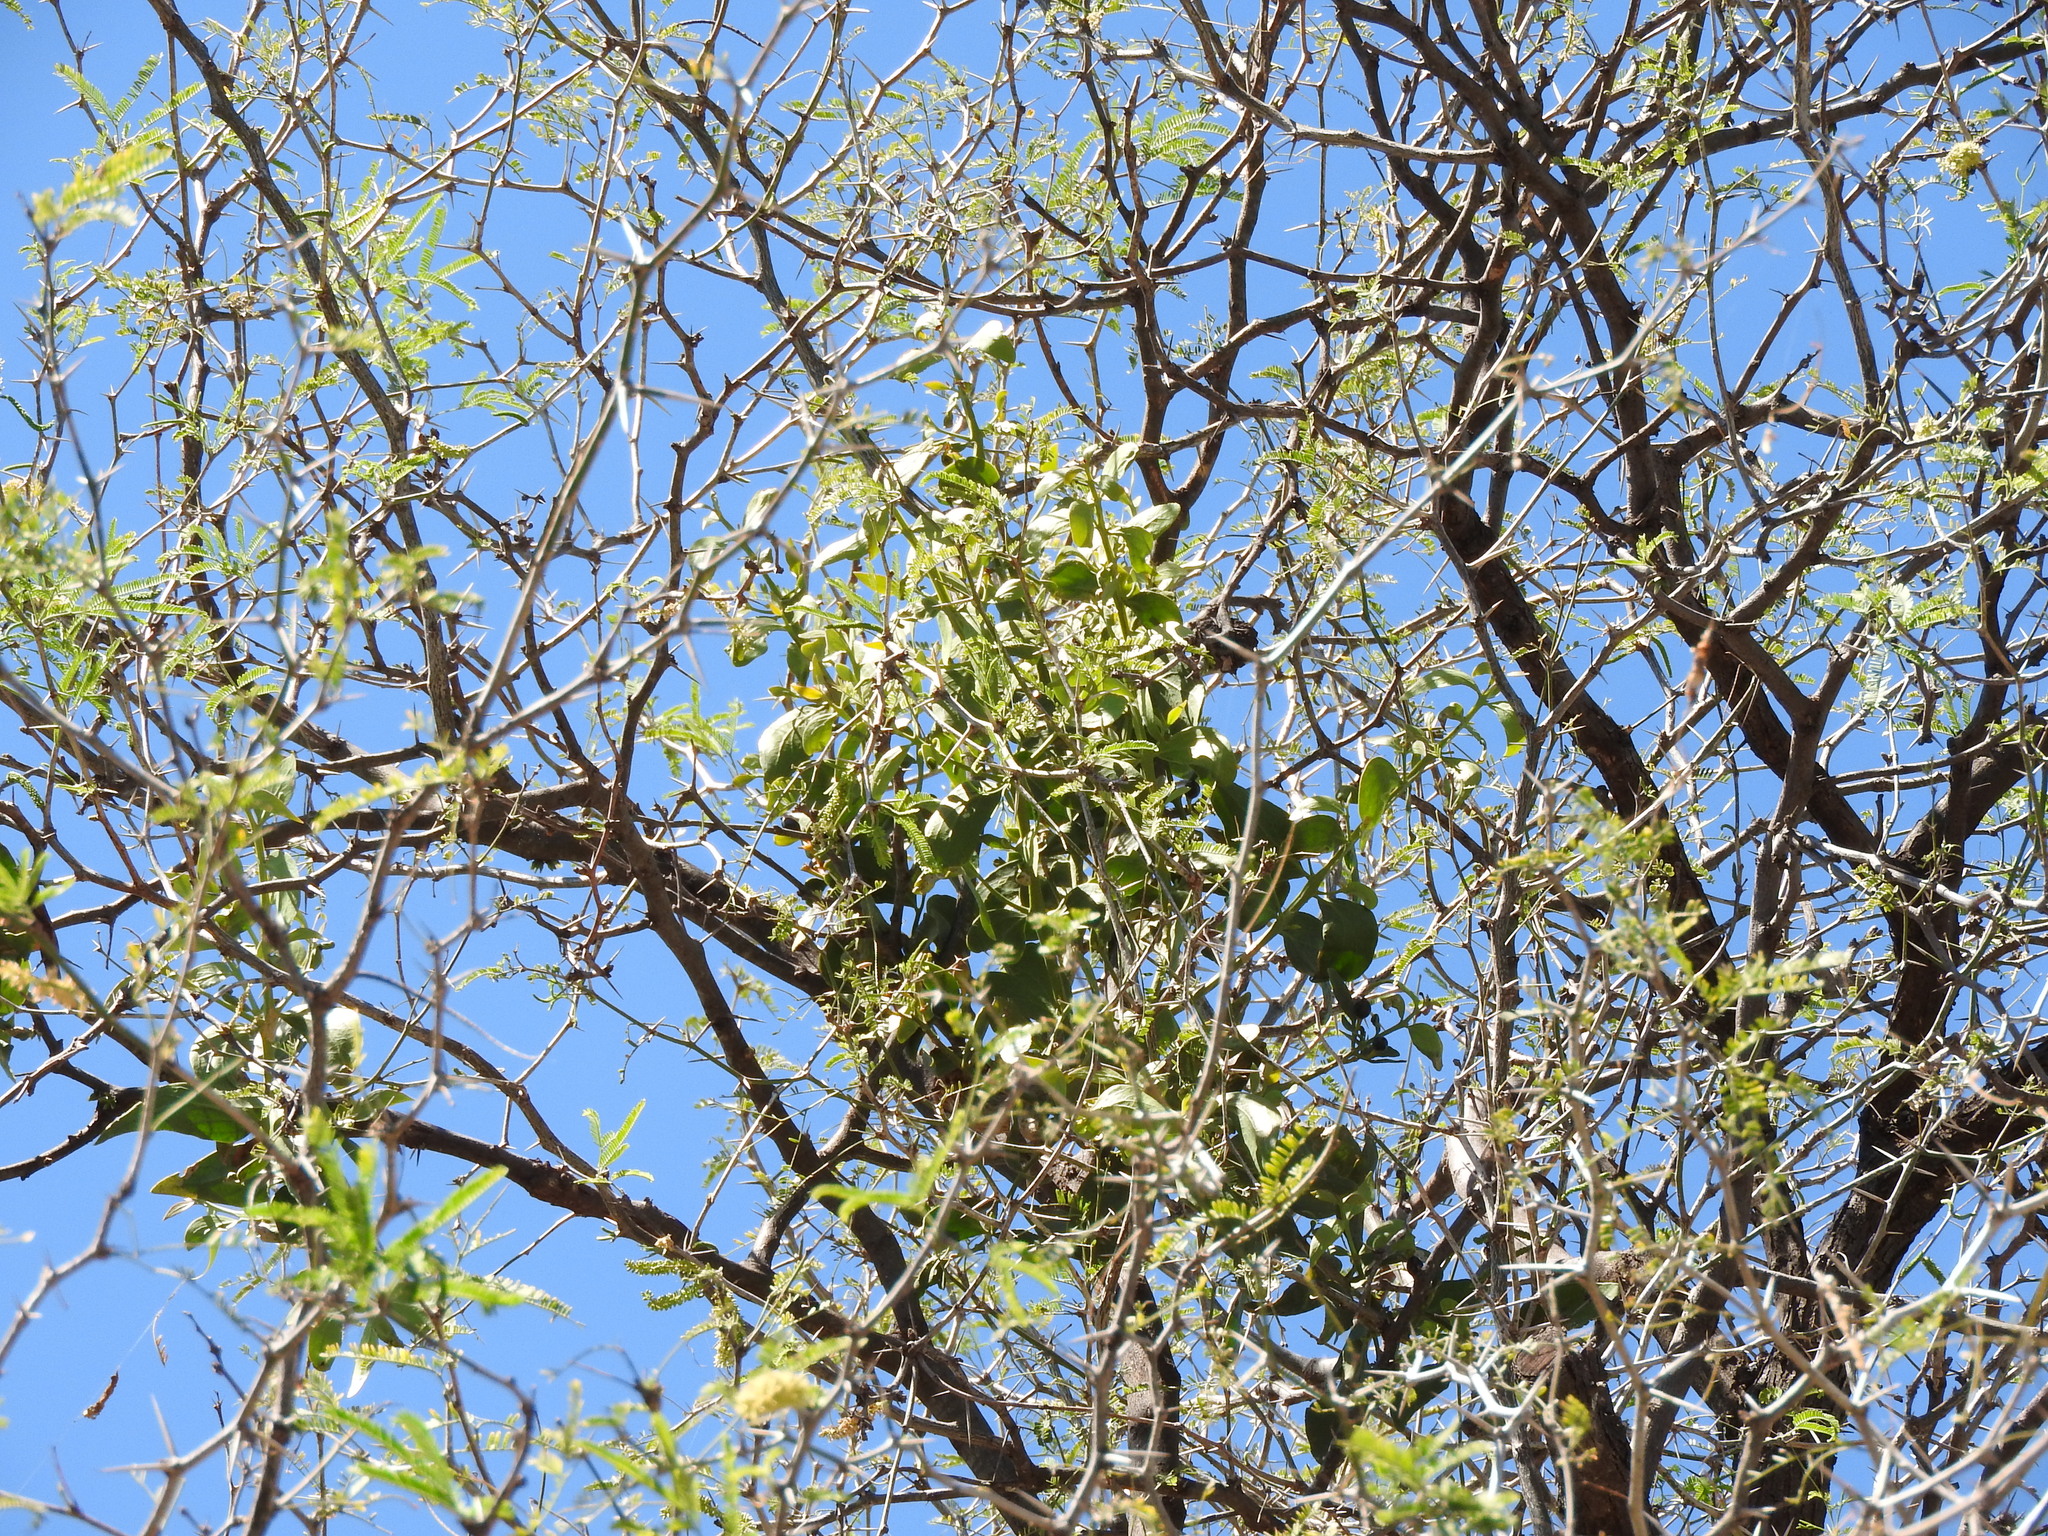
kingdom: Plantae
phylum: Tracheophyta
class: Magnoliopsida
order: Santalales
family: Loranthaceae
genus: Psittacanthus
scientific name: Psittacanthus calyculatus
